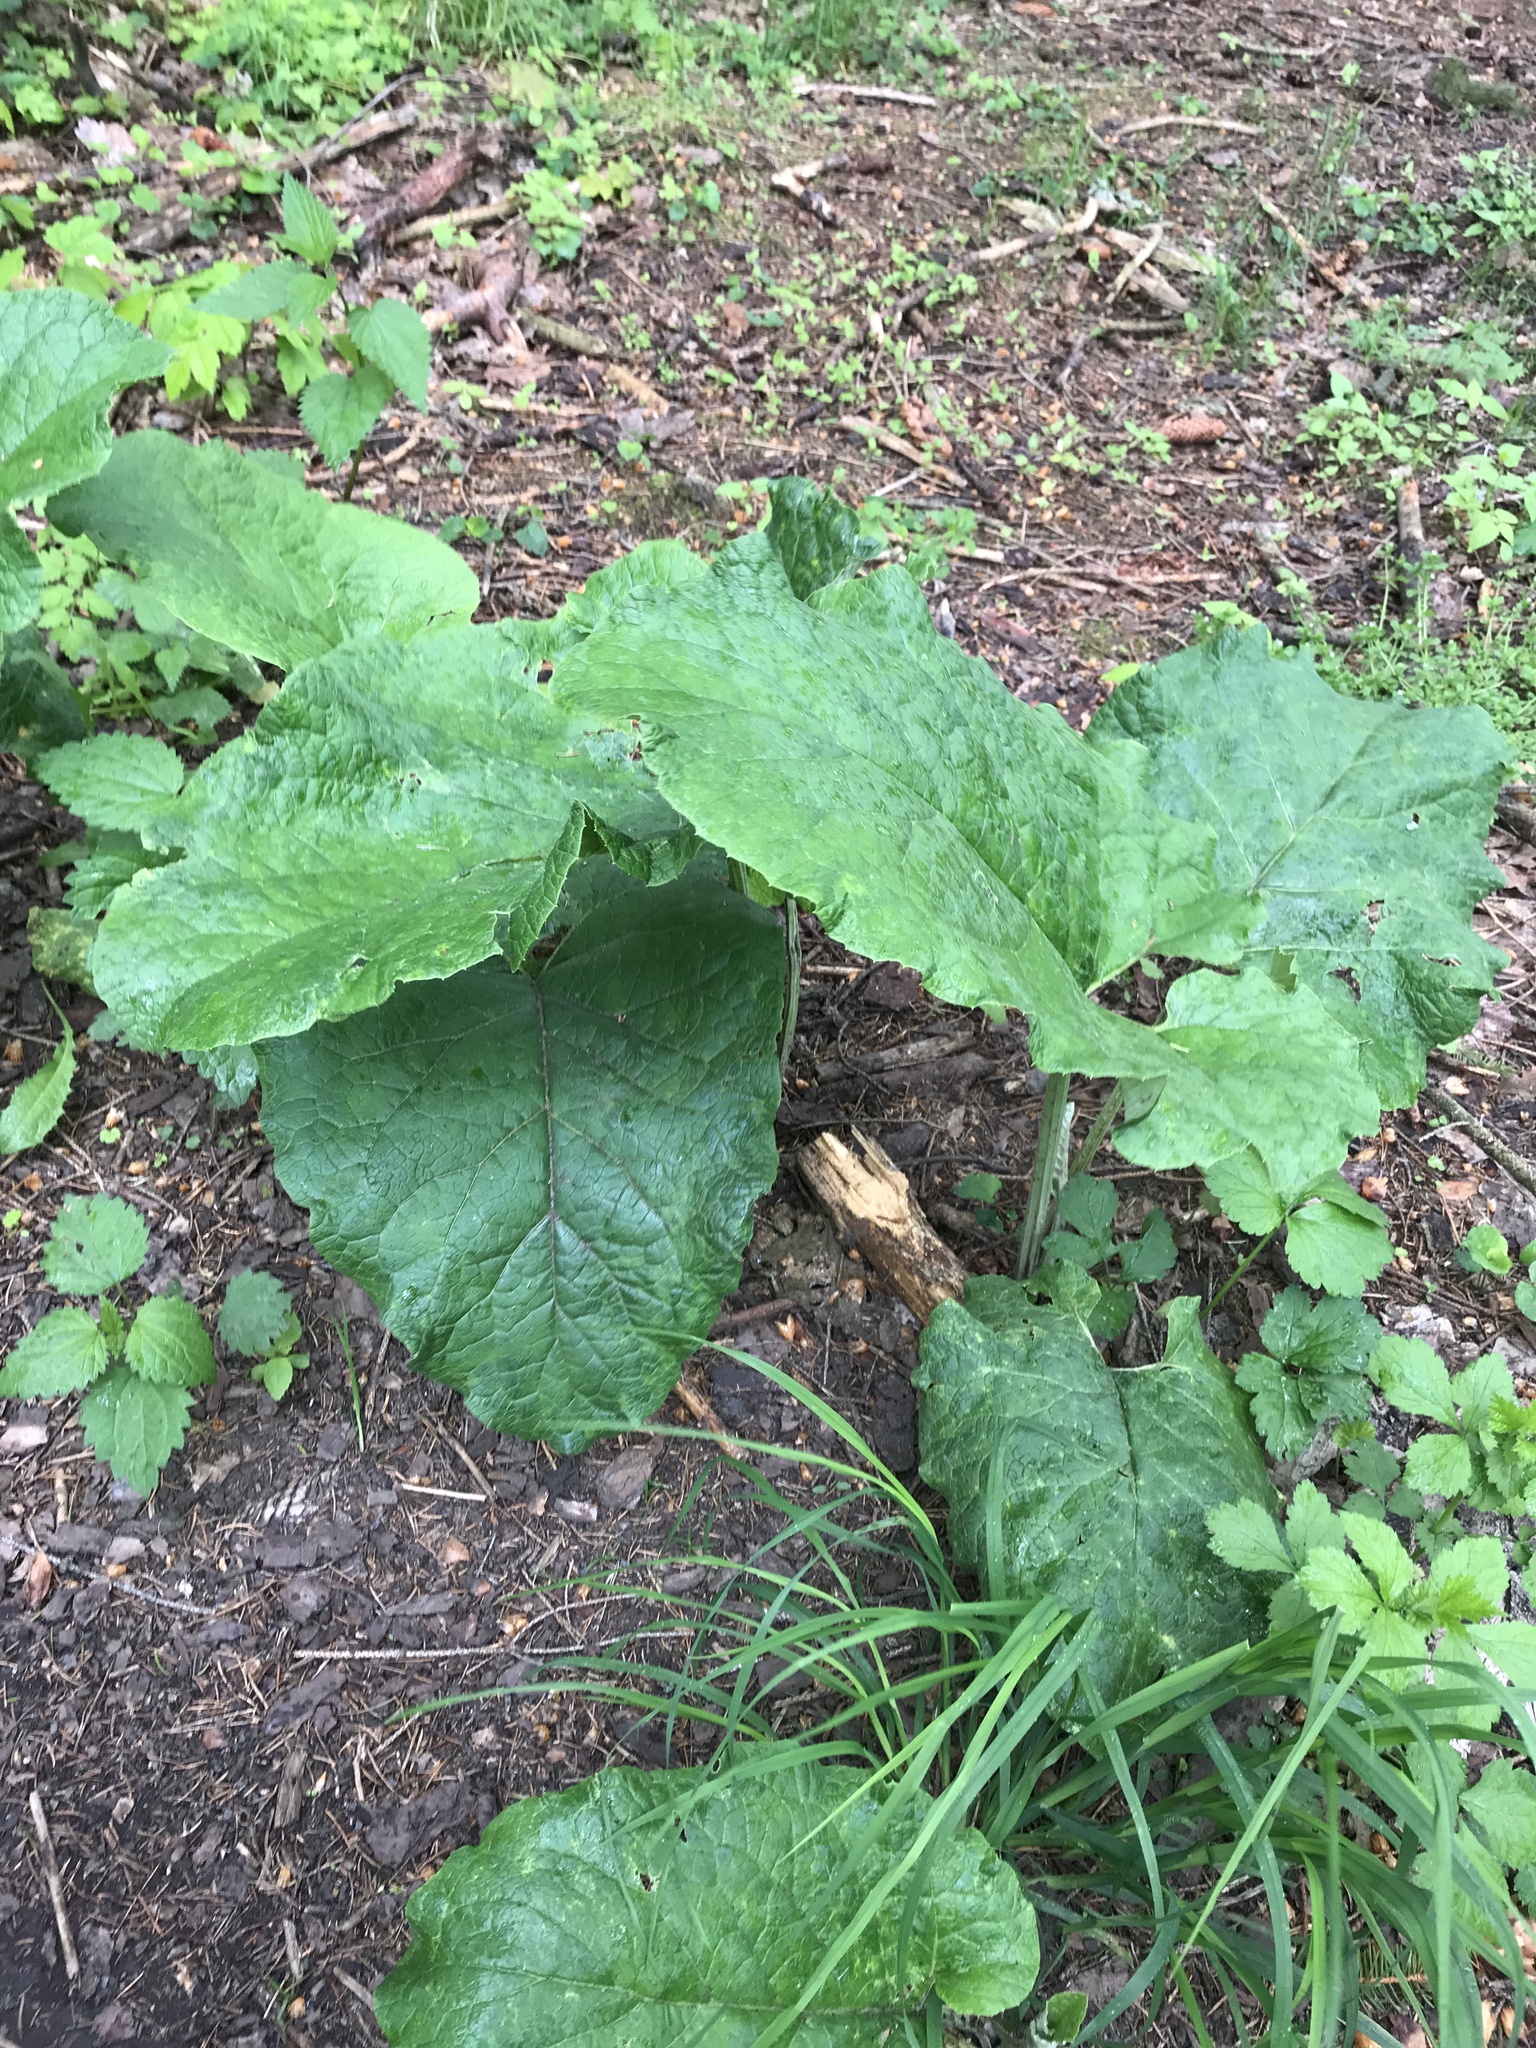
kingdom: Plantae
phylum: Tracheophyta
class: Magnoliopsida
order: Asterales
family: Asteraceae
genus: Arctium
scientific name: Arctium
